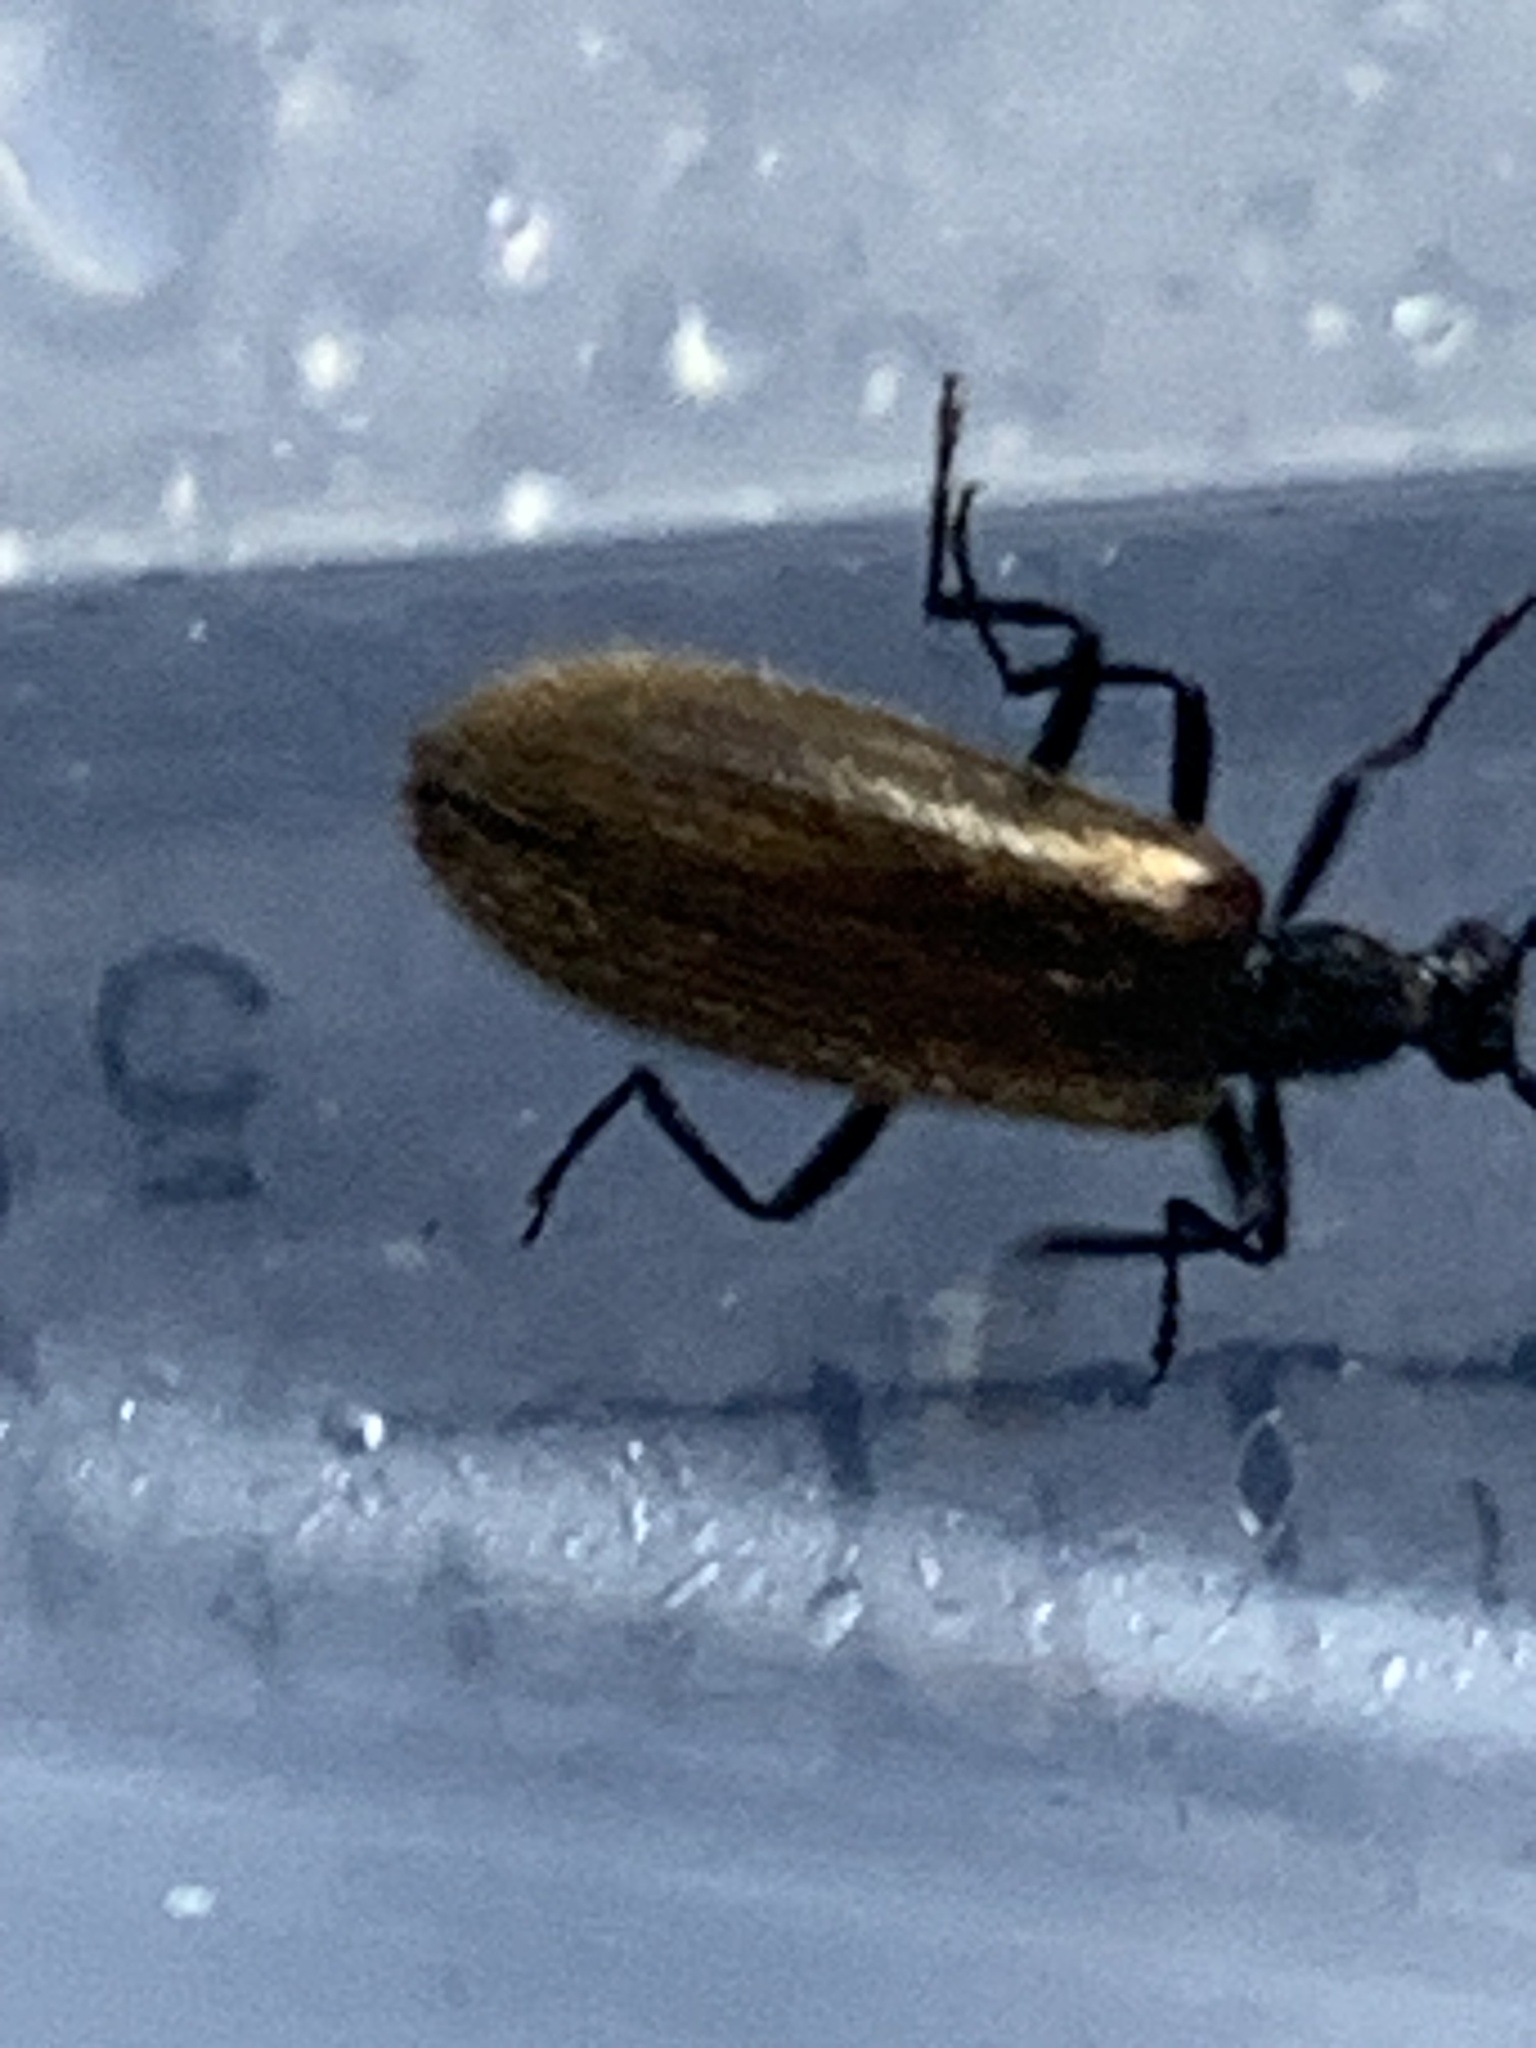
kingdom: Animalia
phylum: Arthropoda
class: Insecta
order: Coleoptera
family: Tenebrionidae
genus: Lagria
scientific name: Lagria hirta
